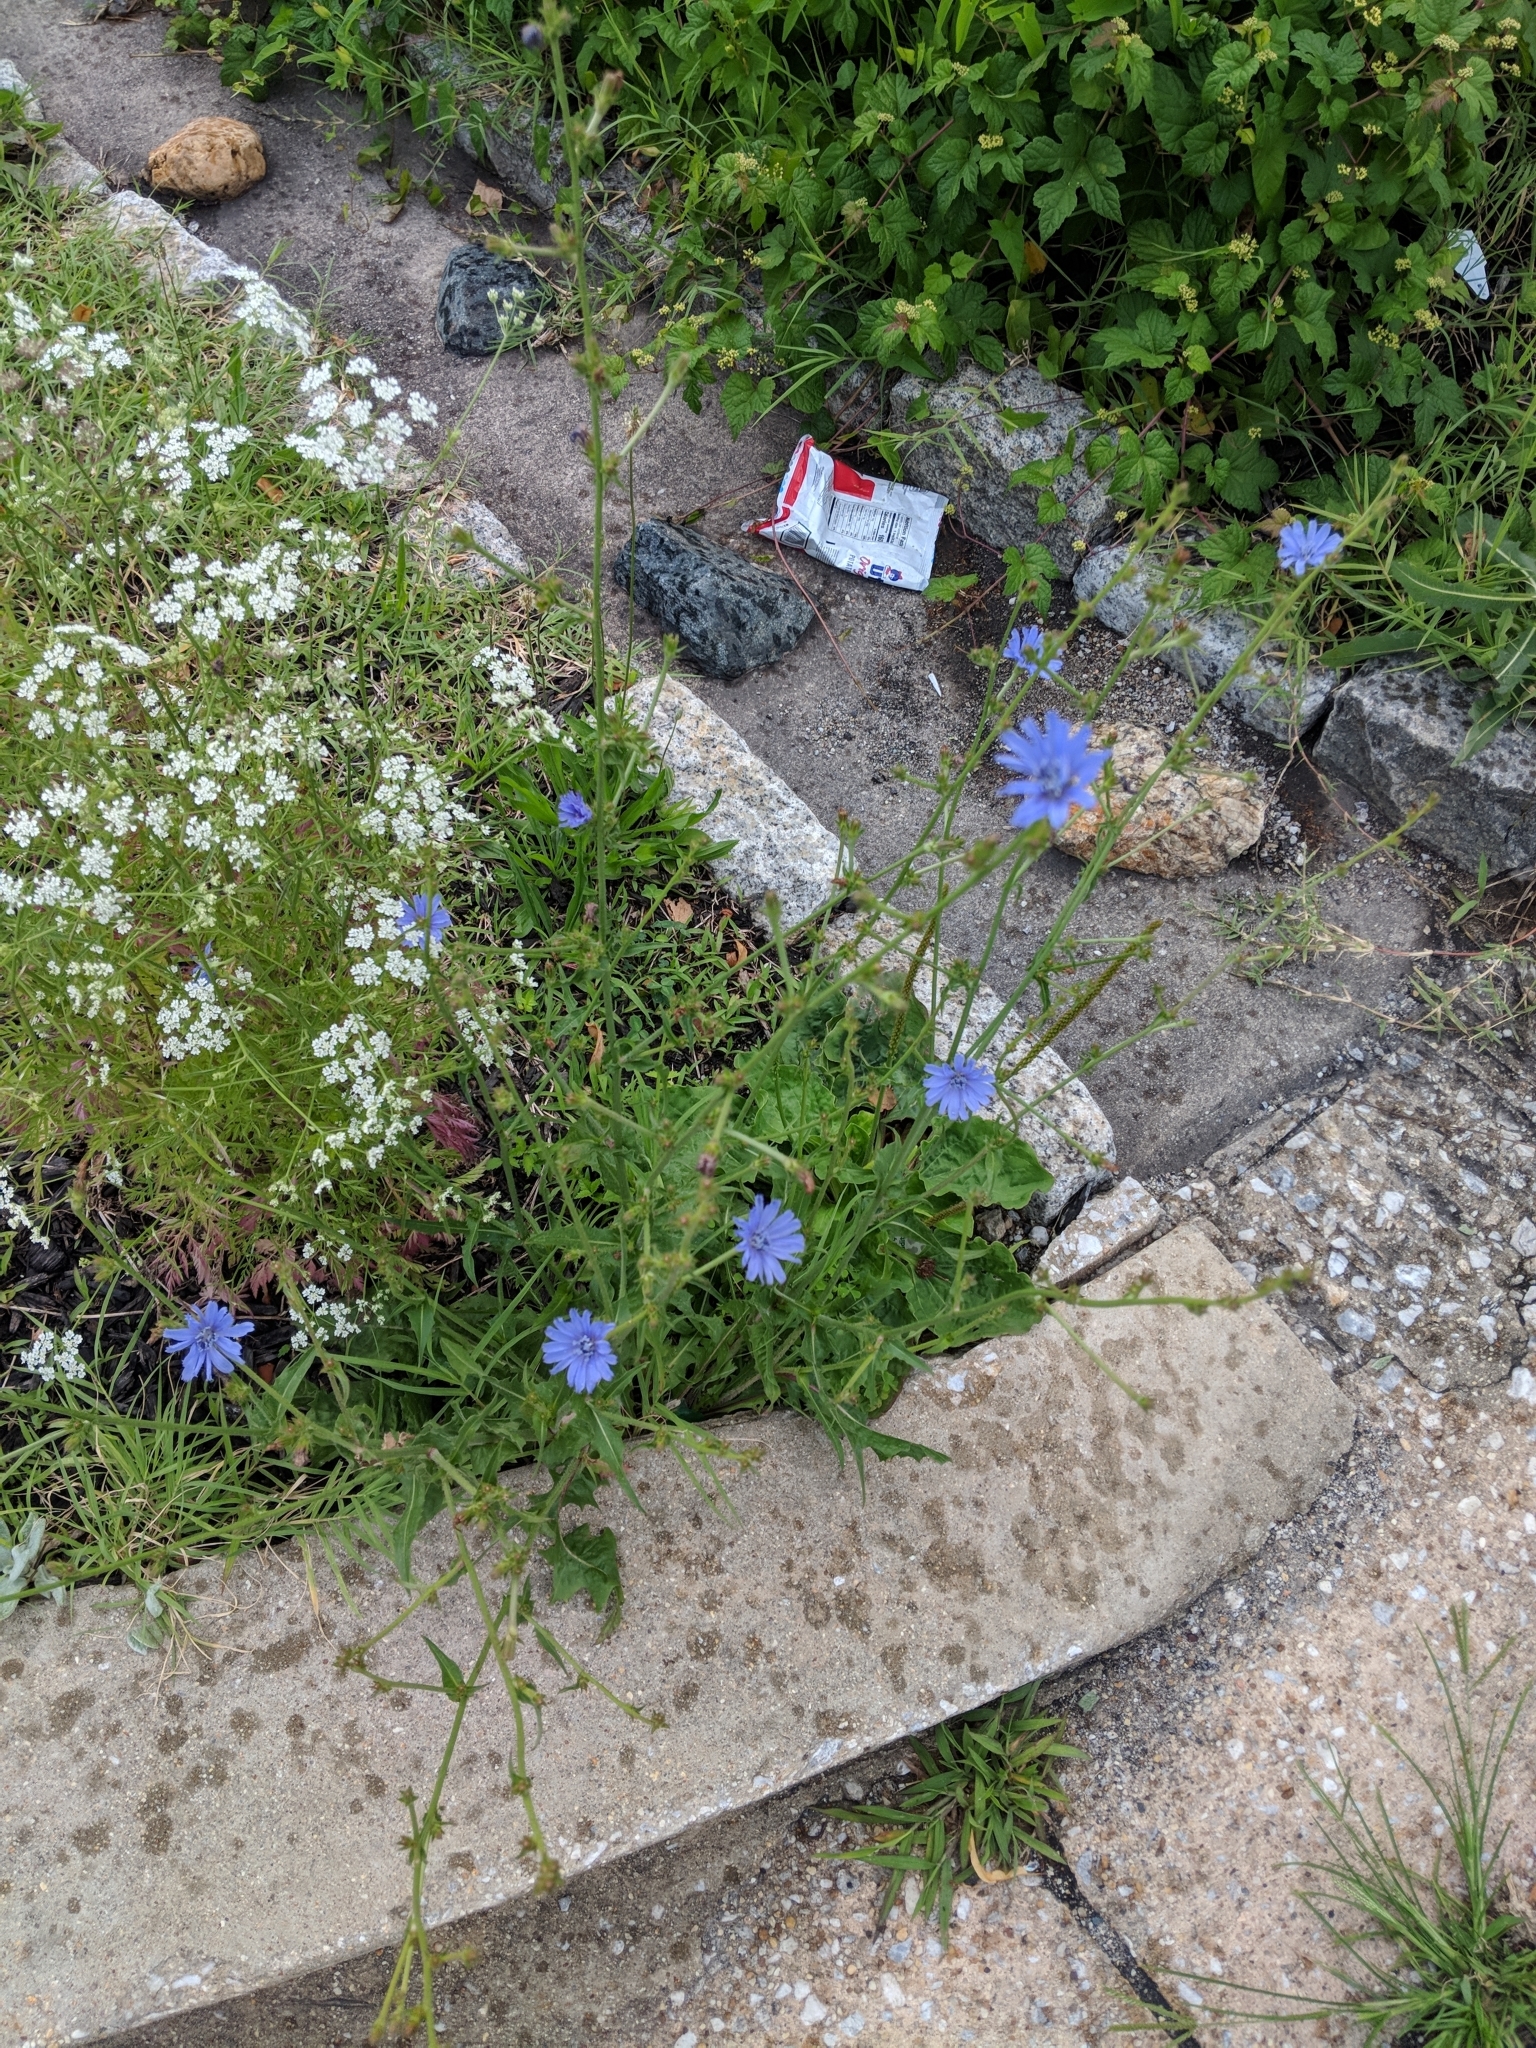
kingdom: Plantae
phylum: Tracheophyta
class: Magnoliopsida
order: Asterales
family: Asteraceae
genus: Cichorium
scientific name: Cichorium intybus
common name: Chicory
